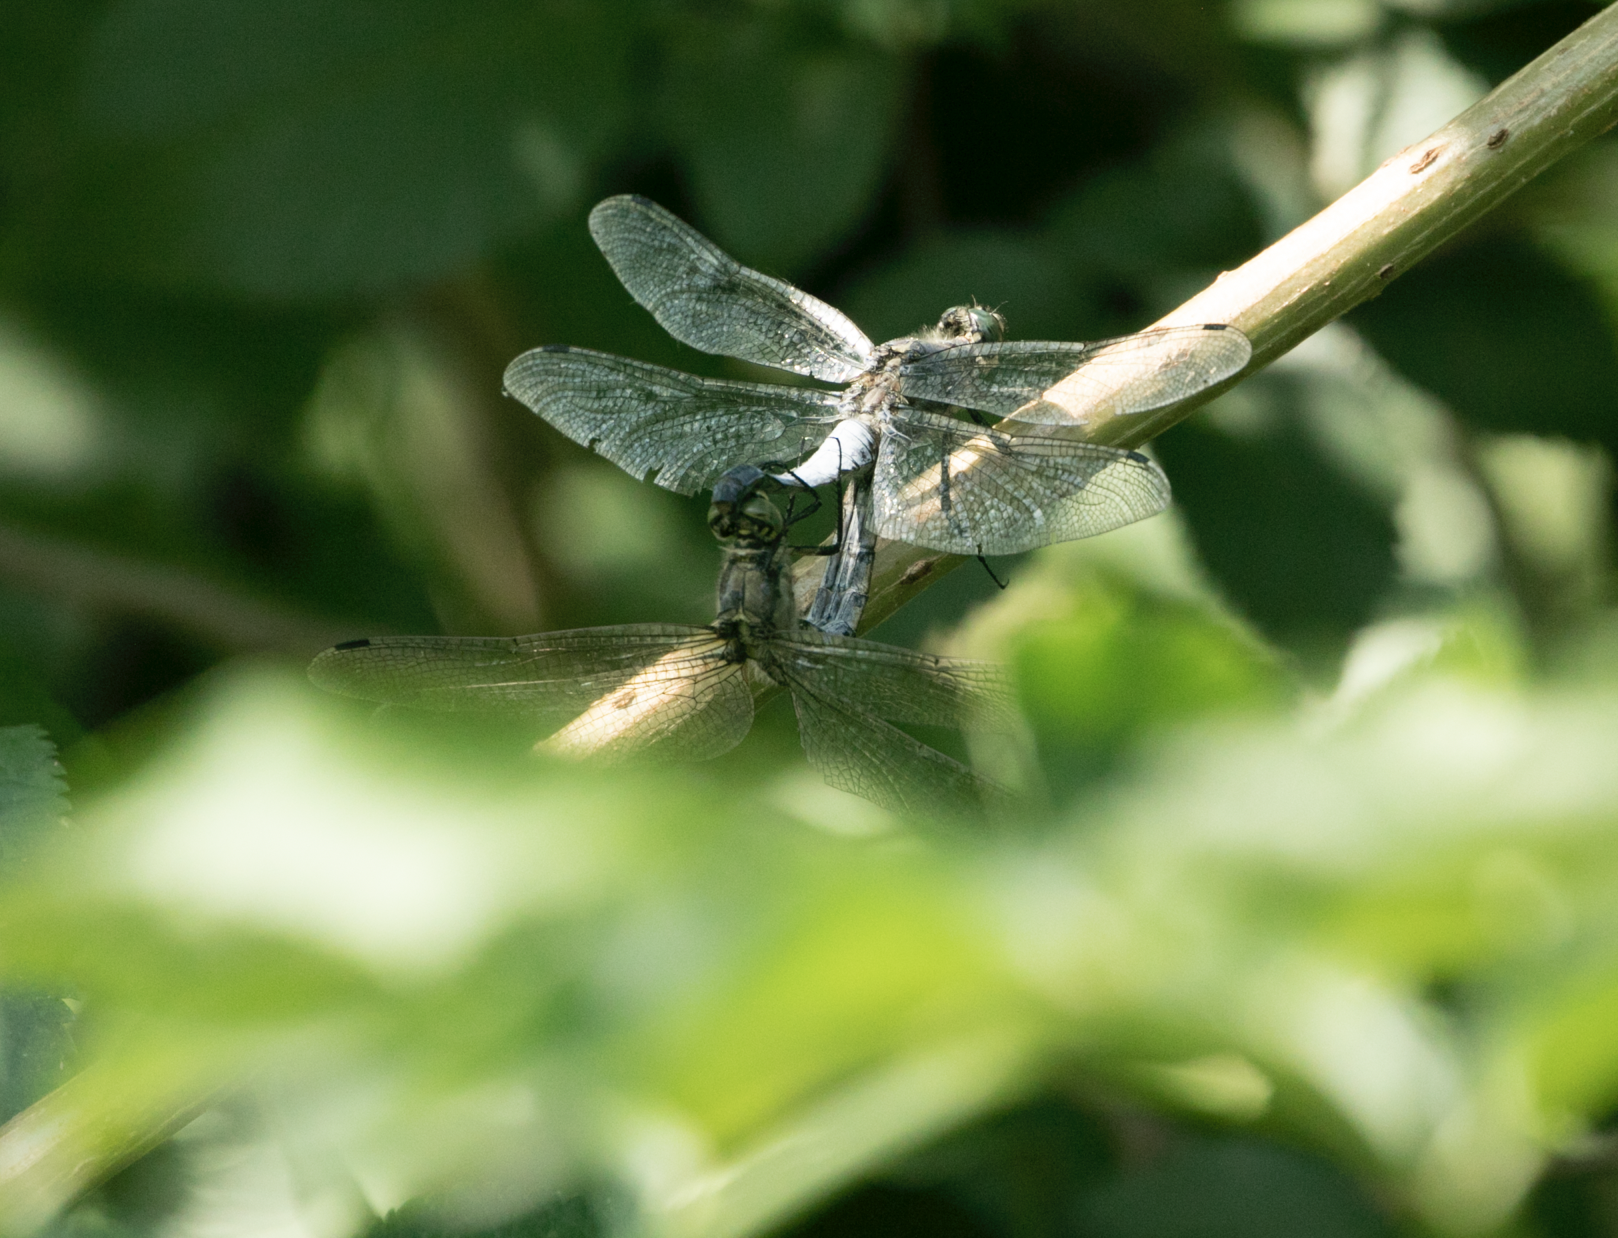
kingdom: Animalia
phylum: Arthropoda
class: Insecta
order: Odonata
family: Libellulidae
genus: Orthetrum
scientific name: Orthetrum cancellatum
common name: Black-tailed skimmer
